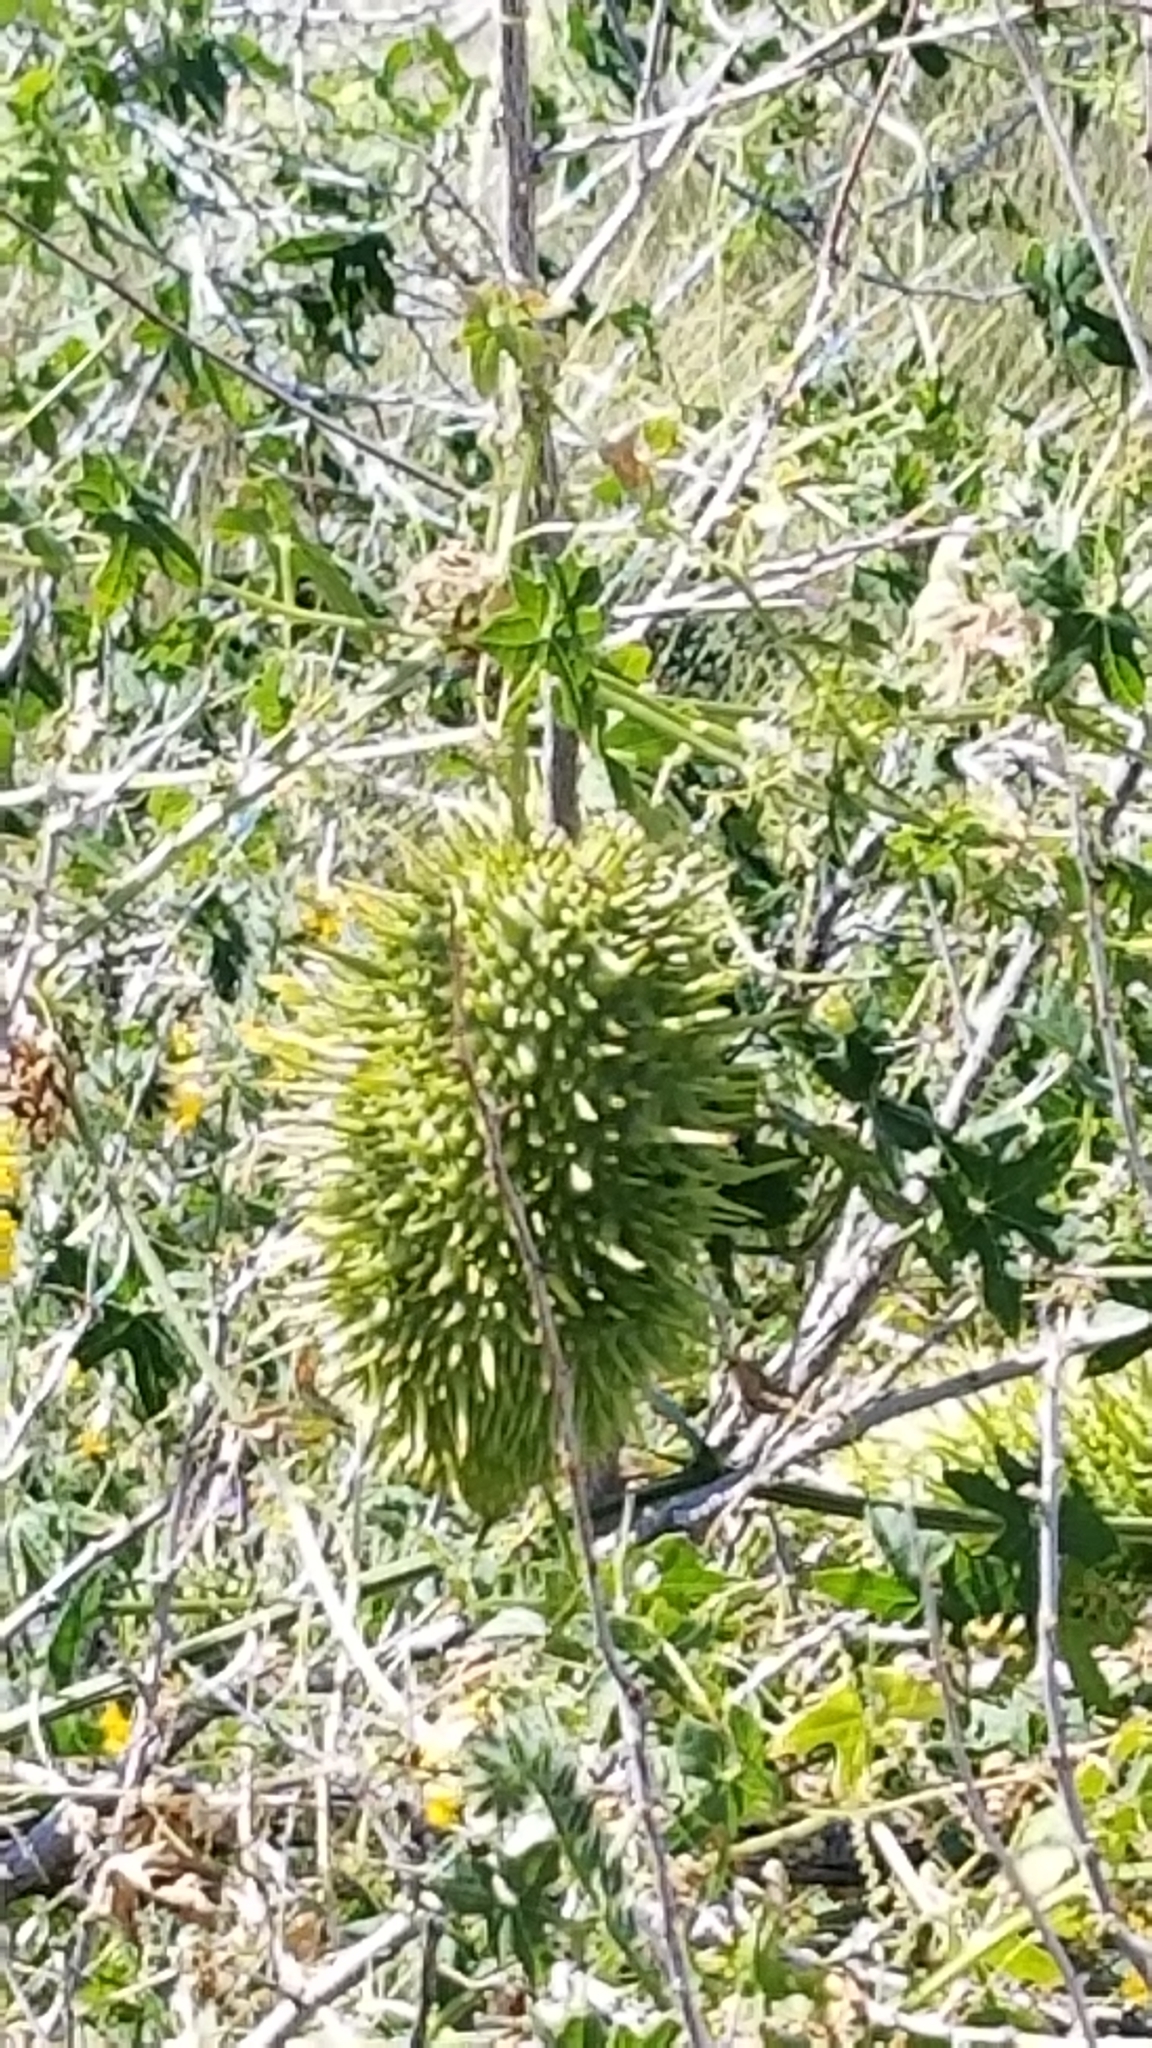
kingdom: Plantae
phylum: Tracheophyta
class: Magnoliopsida
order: Cucurbitales
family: Cucurbitaceae
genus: Marah
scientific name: Marah macrocarpa
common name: Cucamonga manroot
